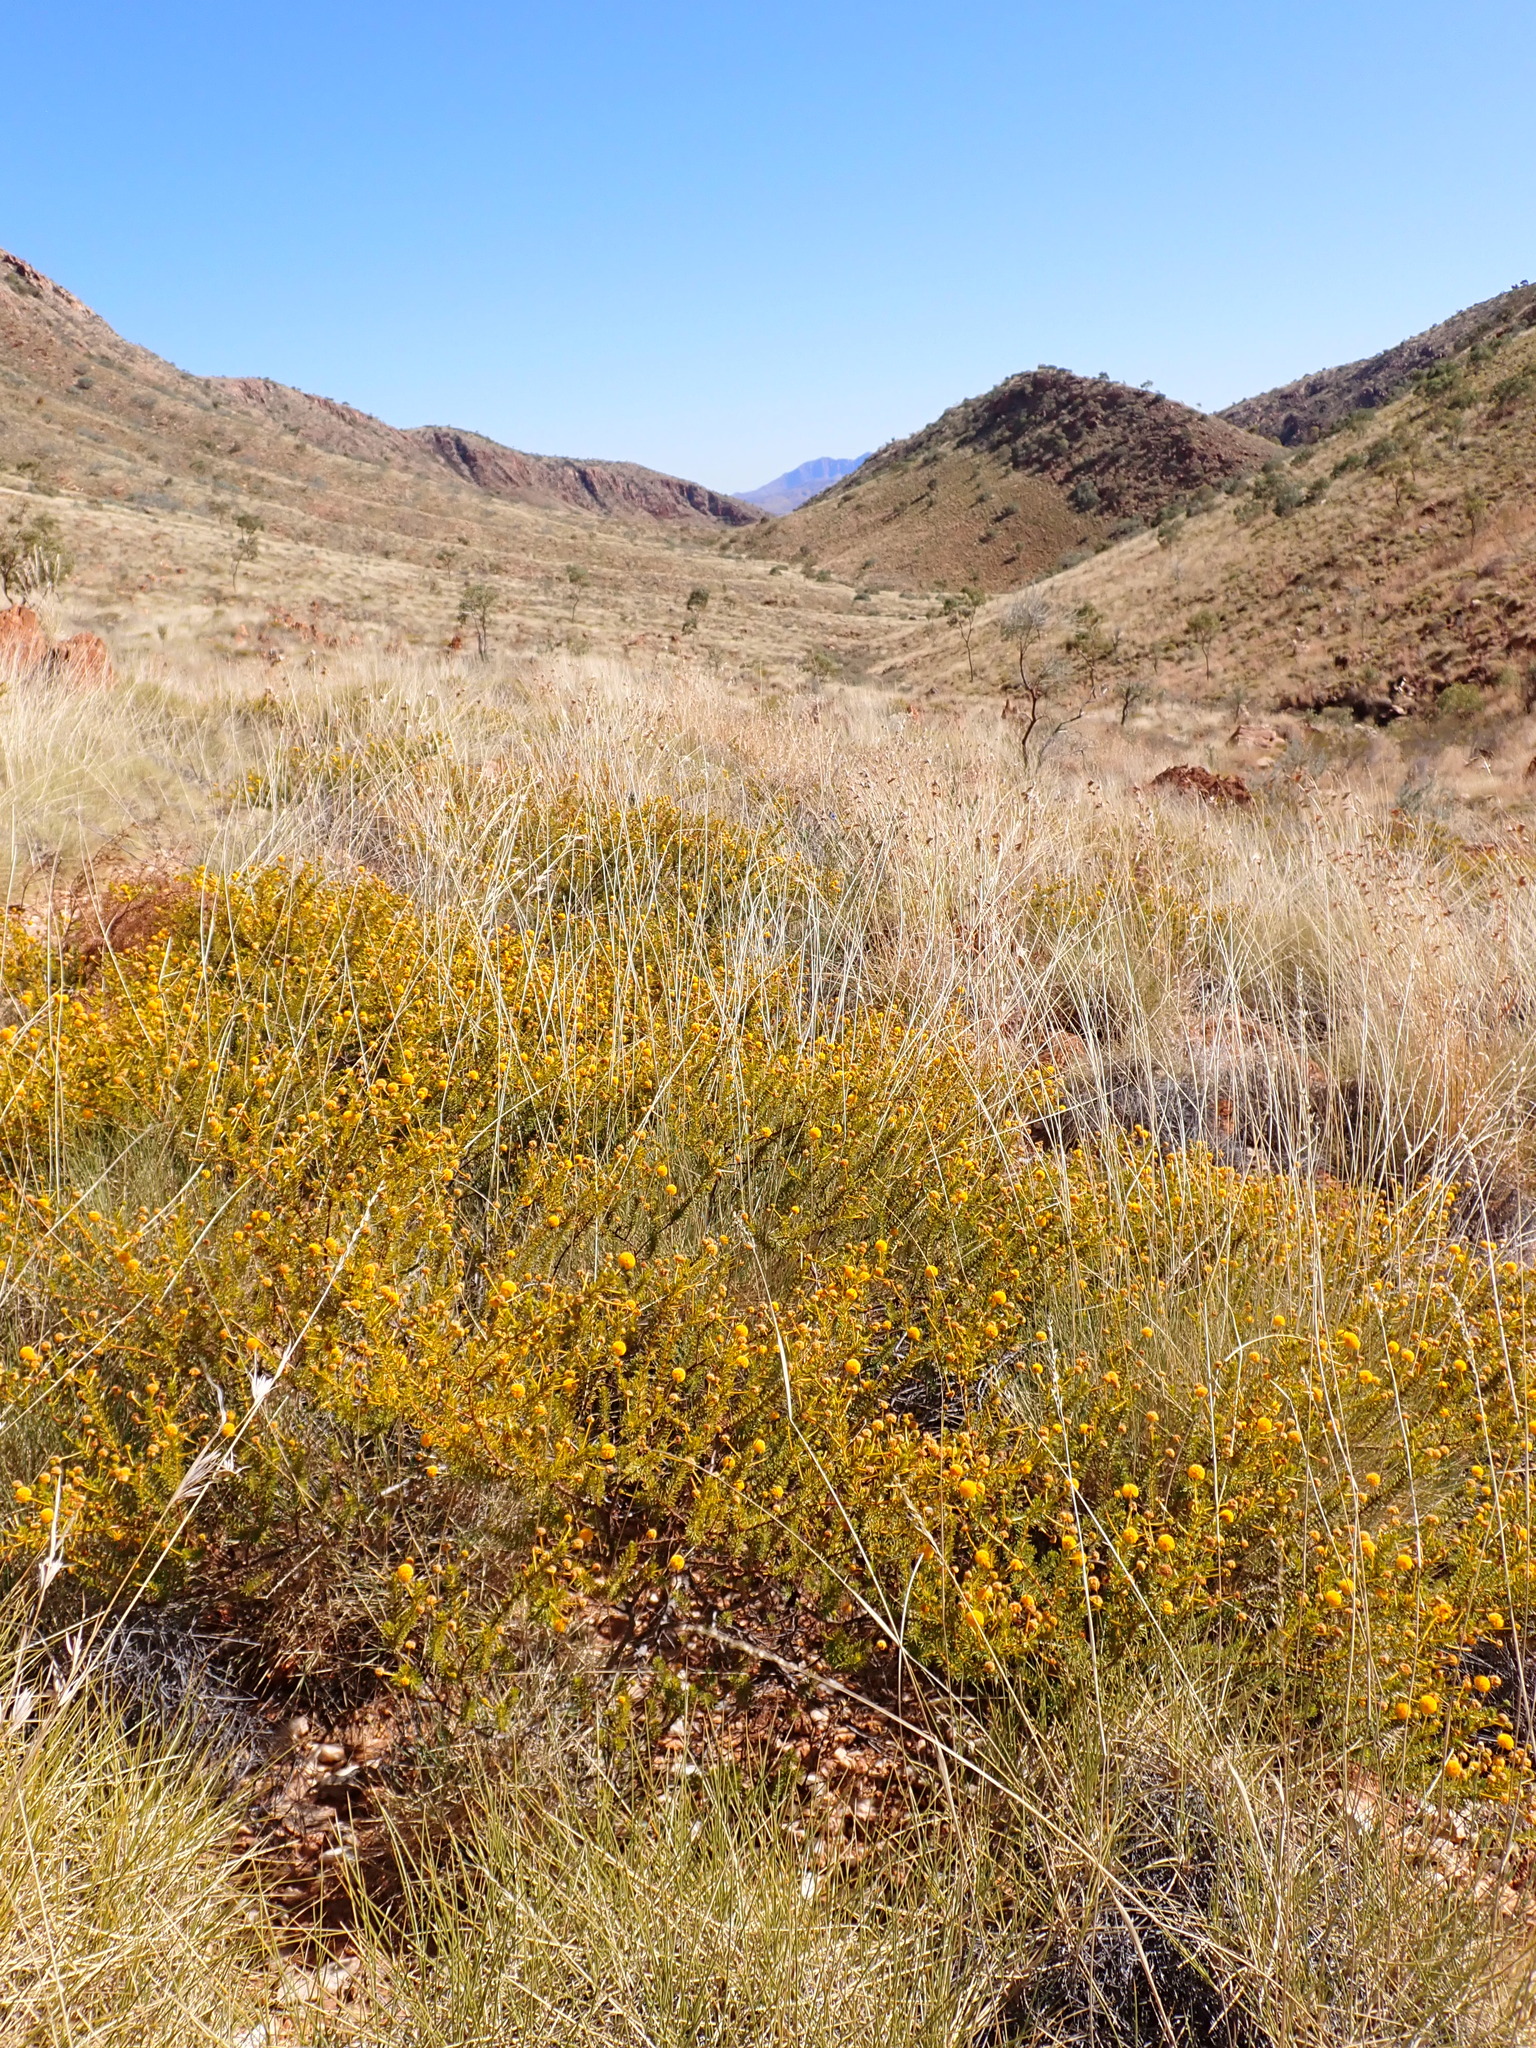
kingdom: Plantae
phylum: Tracheophyta
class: Magnoliopsida
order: Fabales
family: Fabaceae
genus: Acacia
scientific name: Acacia spondylophylla
